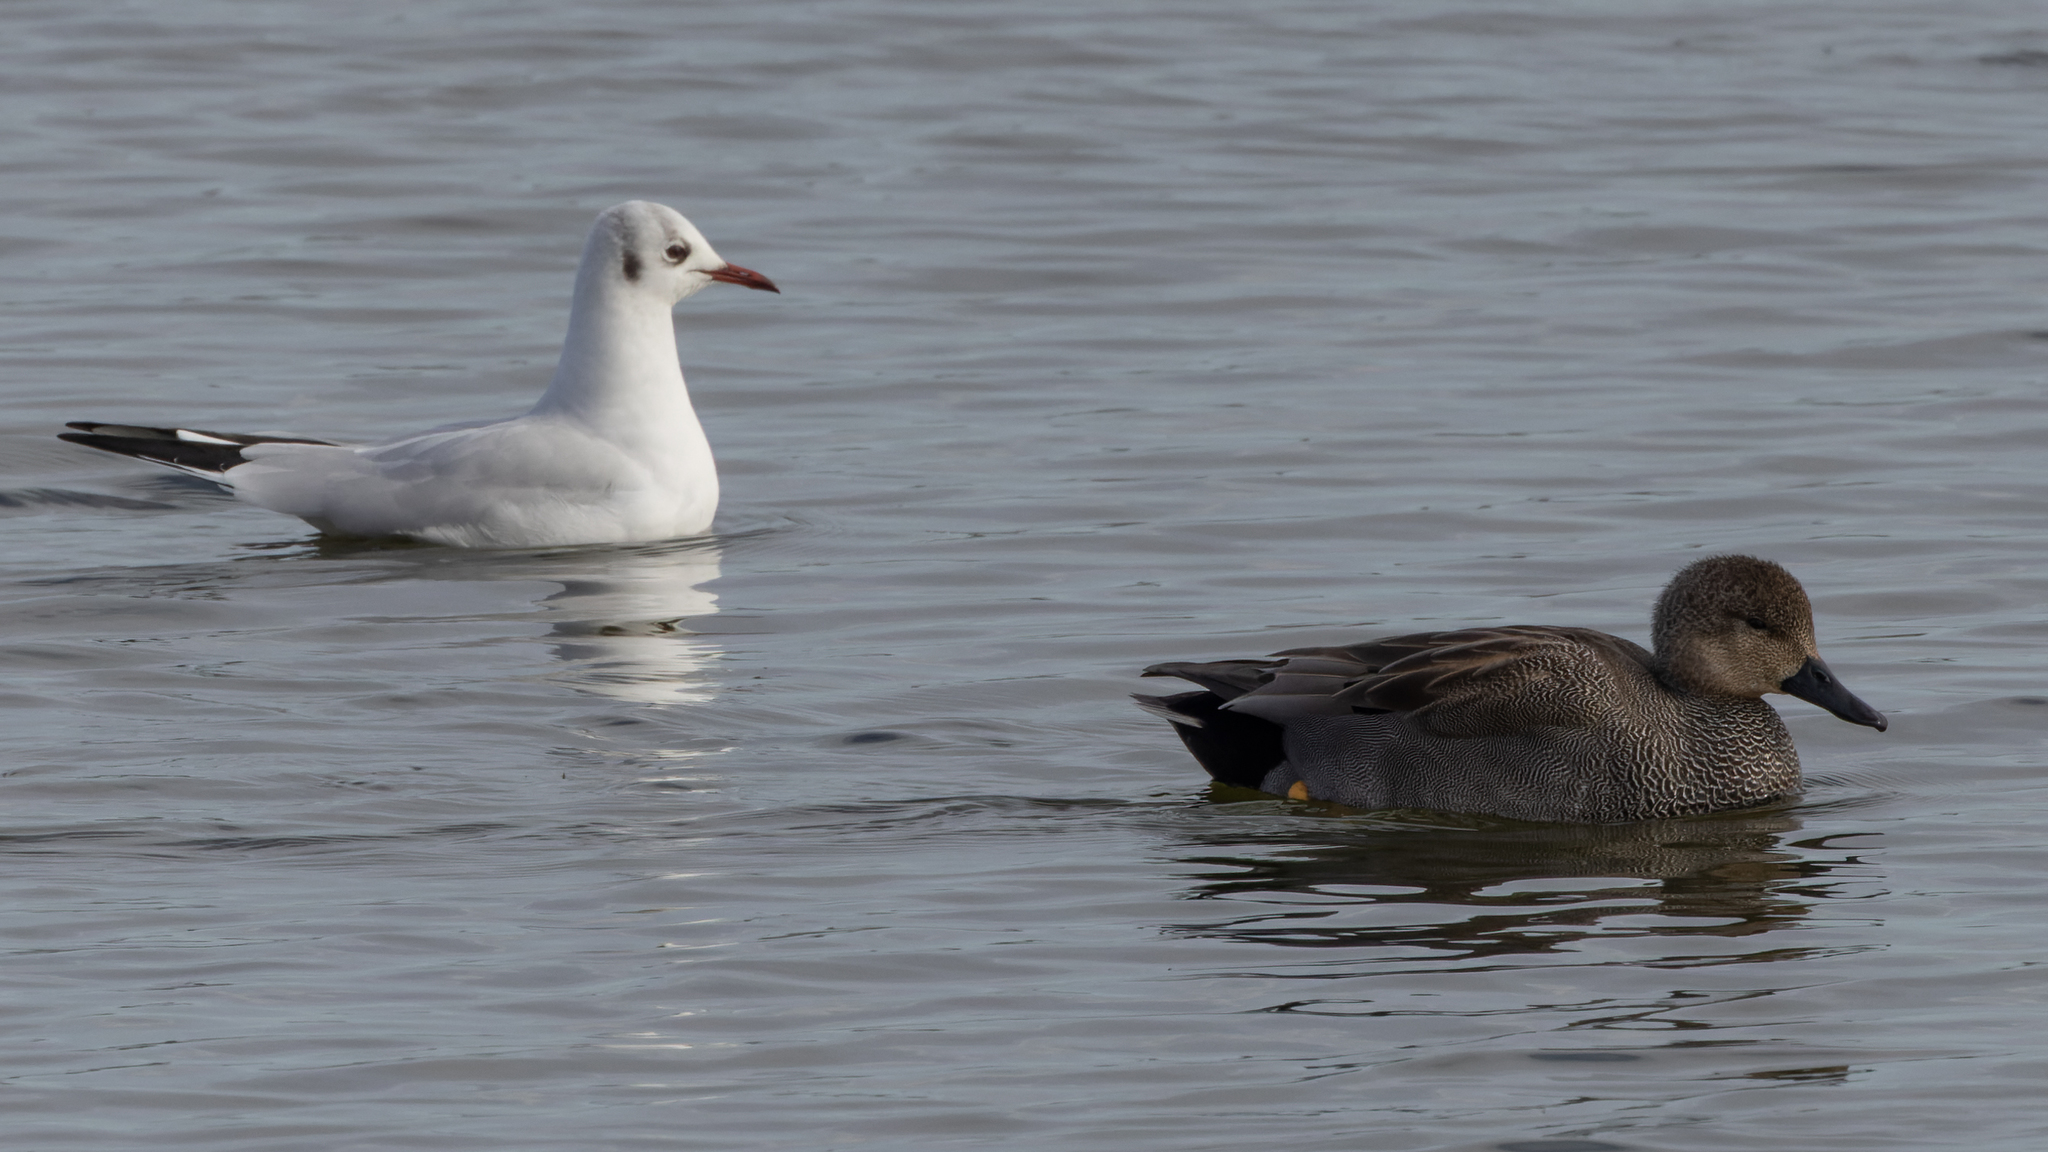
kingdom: Animalia
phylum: Chordata
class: Aves
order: Anseriformes
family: Anatidae
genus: Mareca
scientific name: Mareca strepera
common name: Gadwall
